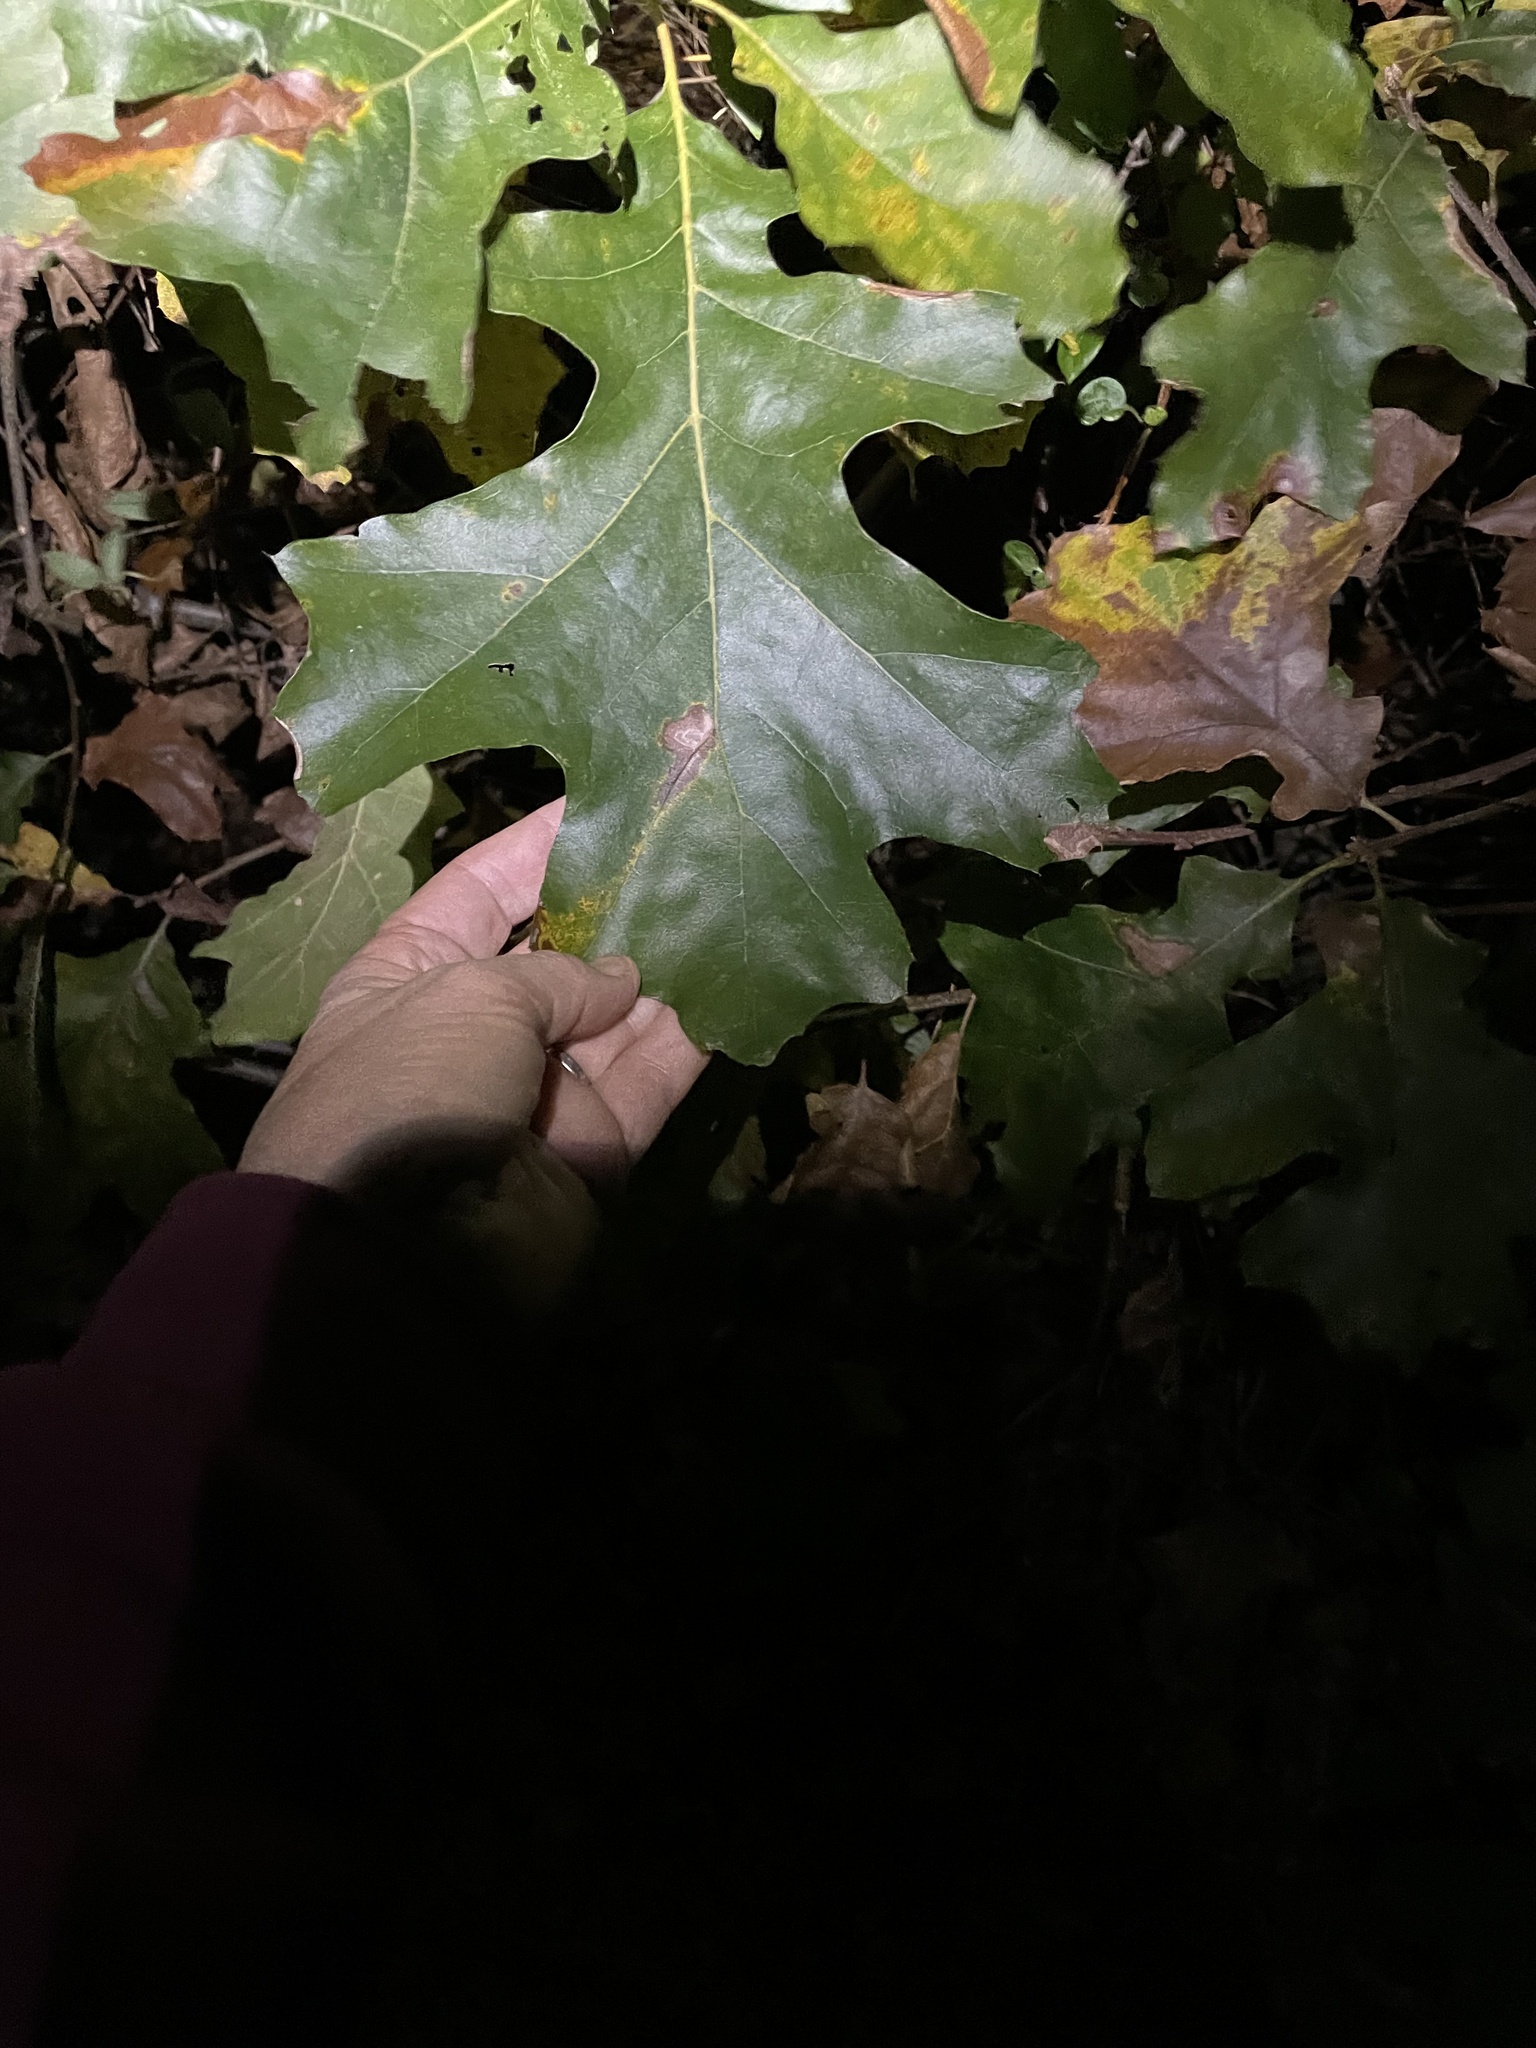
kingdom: Plantae
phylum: Tracheophyta
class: Magnoliopsida
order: Fagales
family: Fagaceae
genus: Quercus
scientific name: Quercus velutina
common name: Black oak
